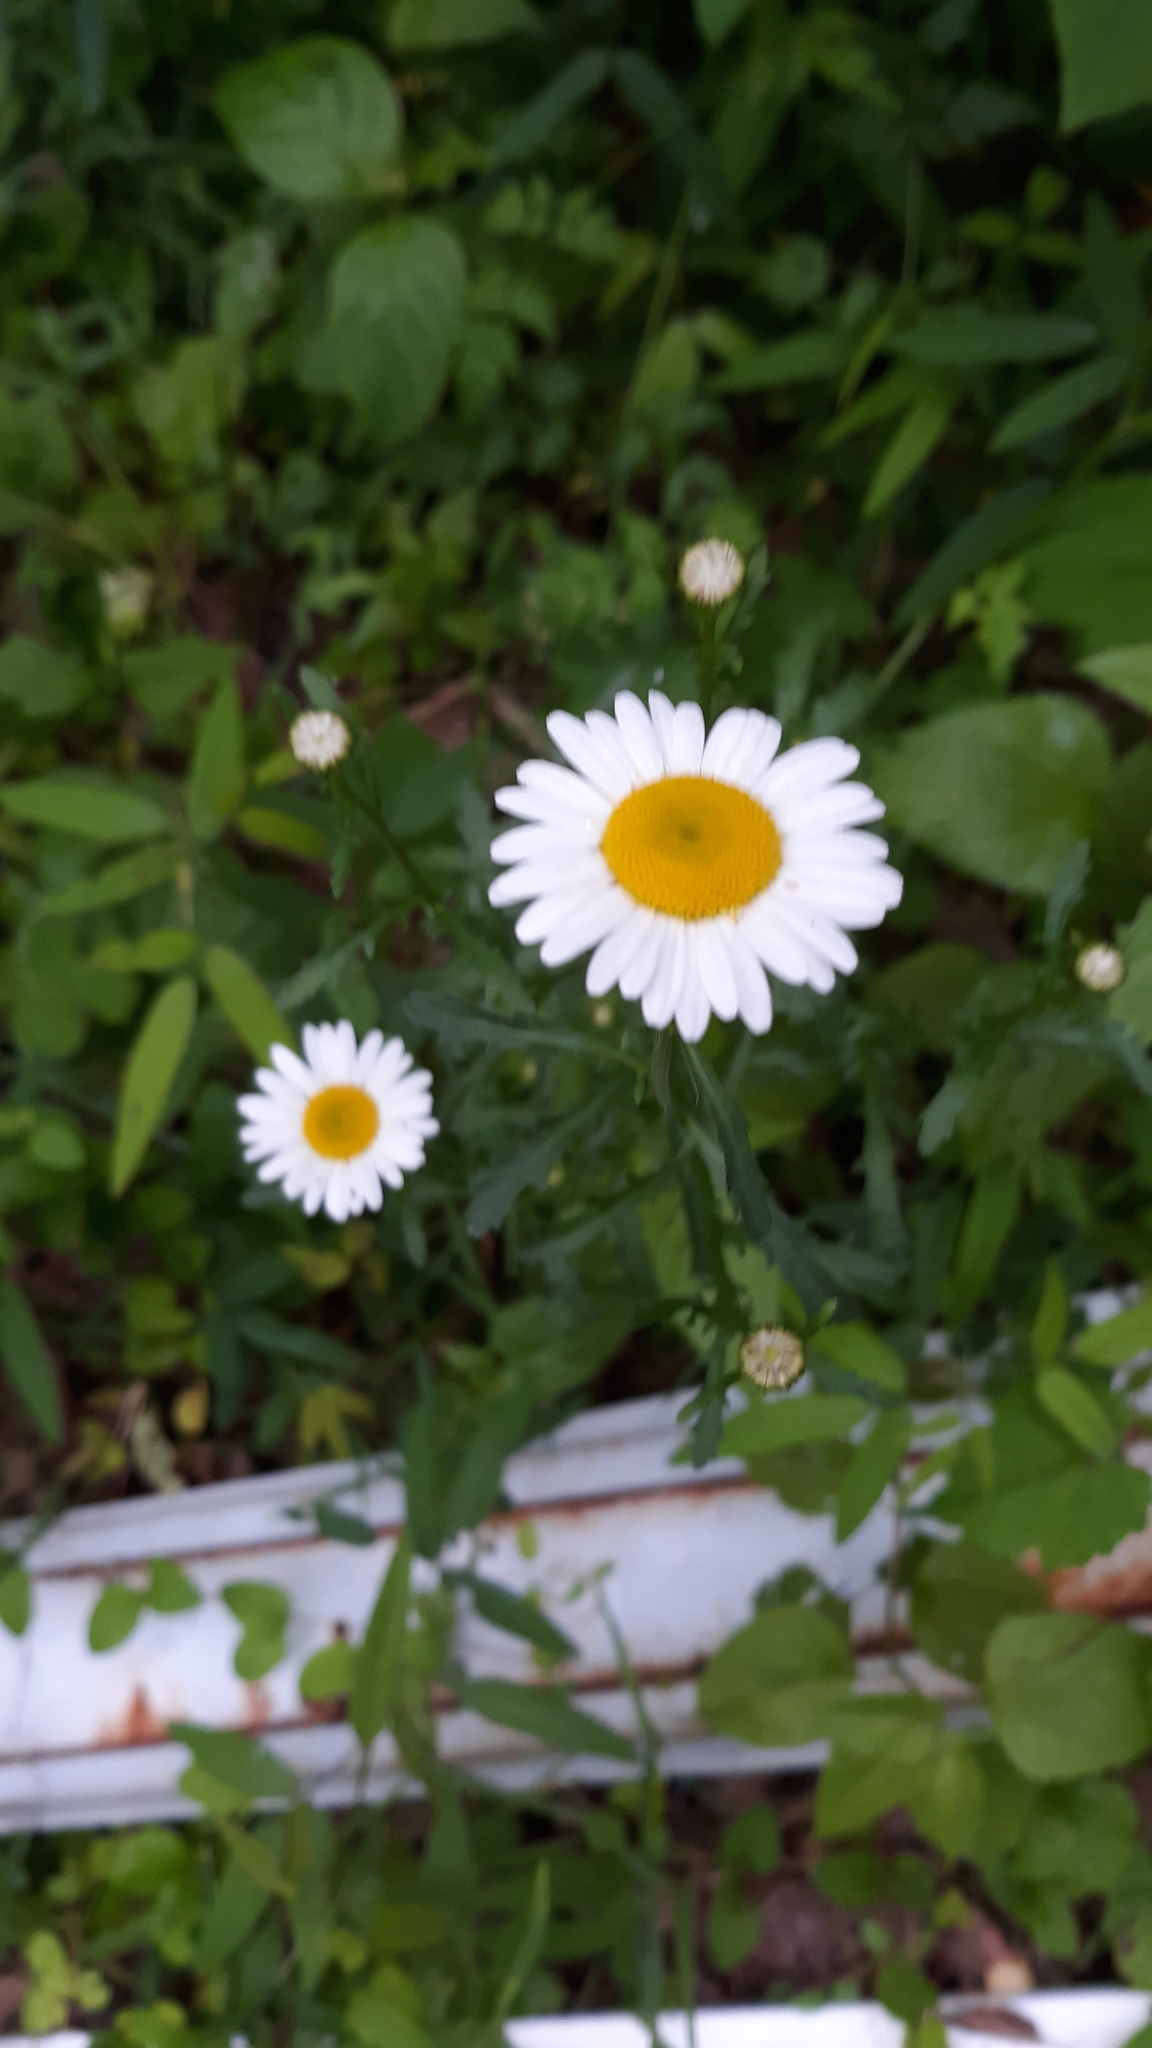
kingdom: Plantae
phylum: Tracheophyta
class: Magnoliopsida
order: Asterales
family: Asteraceae
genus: Leucanthemum
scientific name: Leucanthemum vulgare
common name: Oxeye daisy
